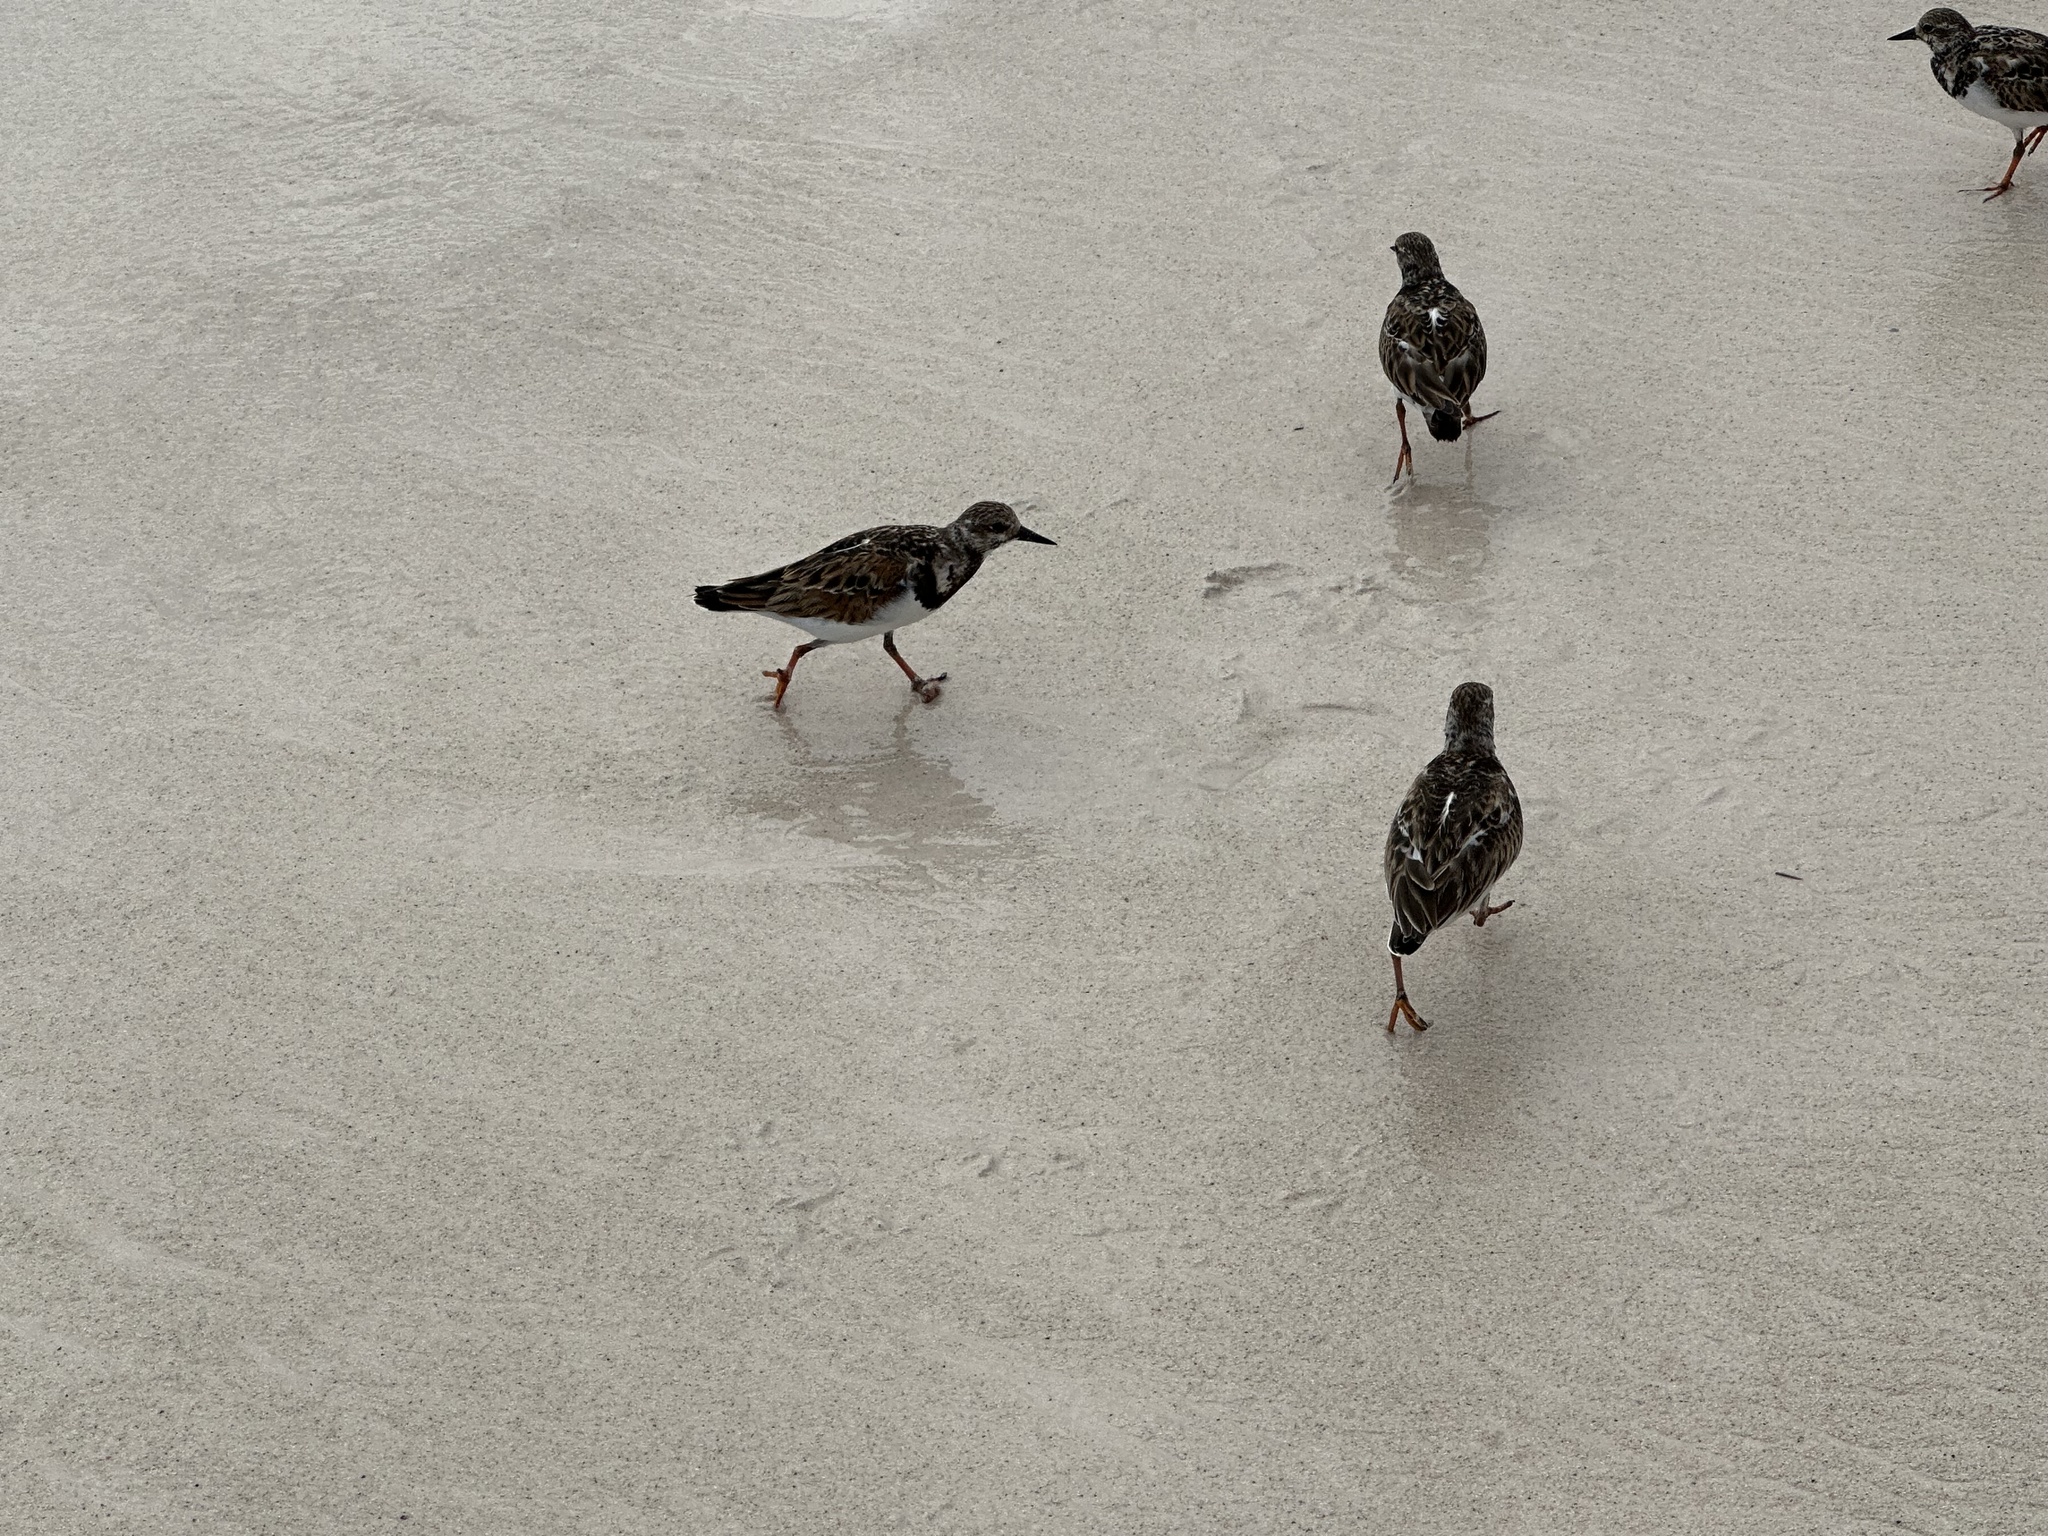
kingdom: Animalia
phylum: Chordata
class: Aves
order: Charadriiformes
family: Scolopacidae
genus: Arenaria
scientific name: Arenaria interpres
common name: Ruddy turnstone
